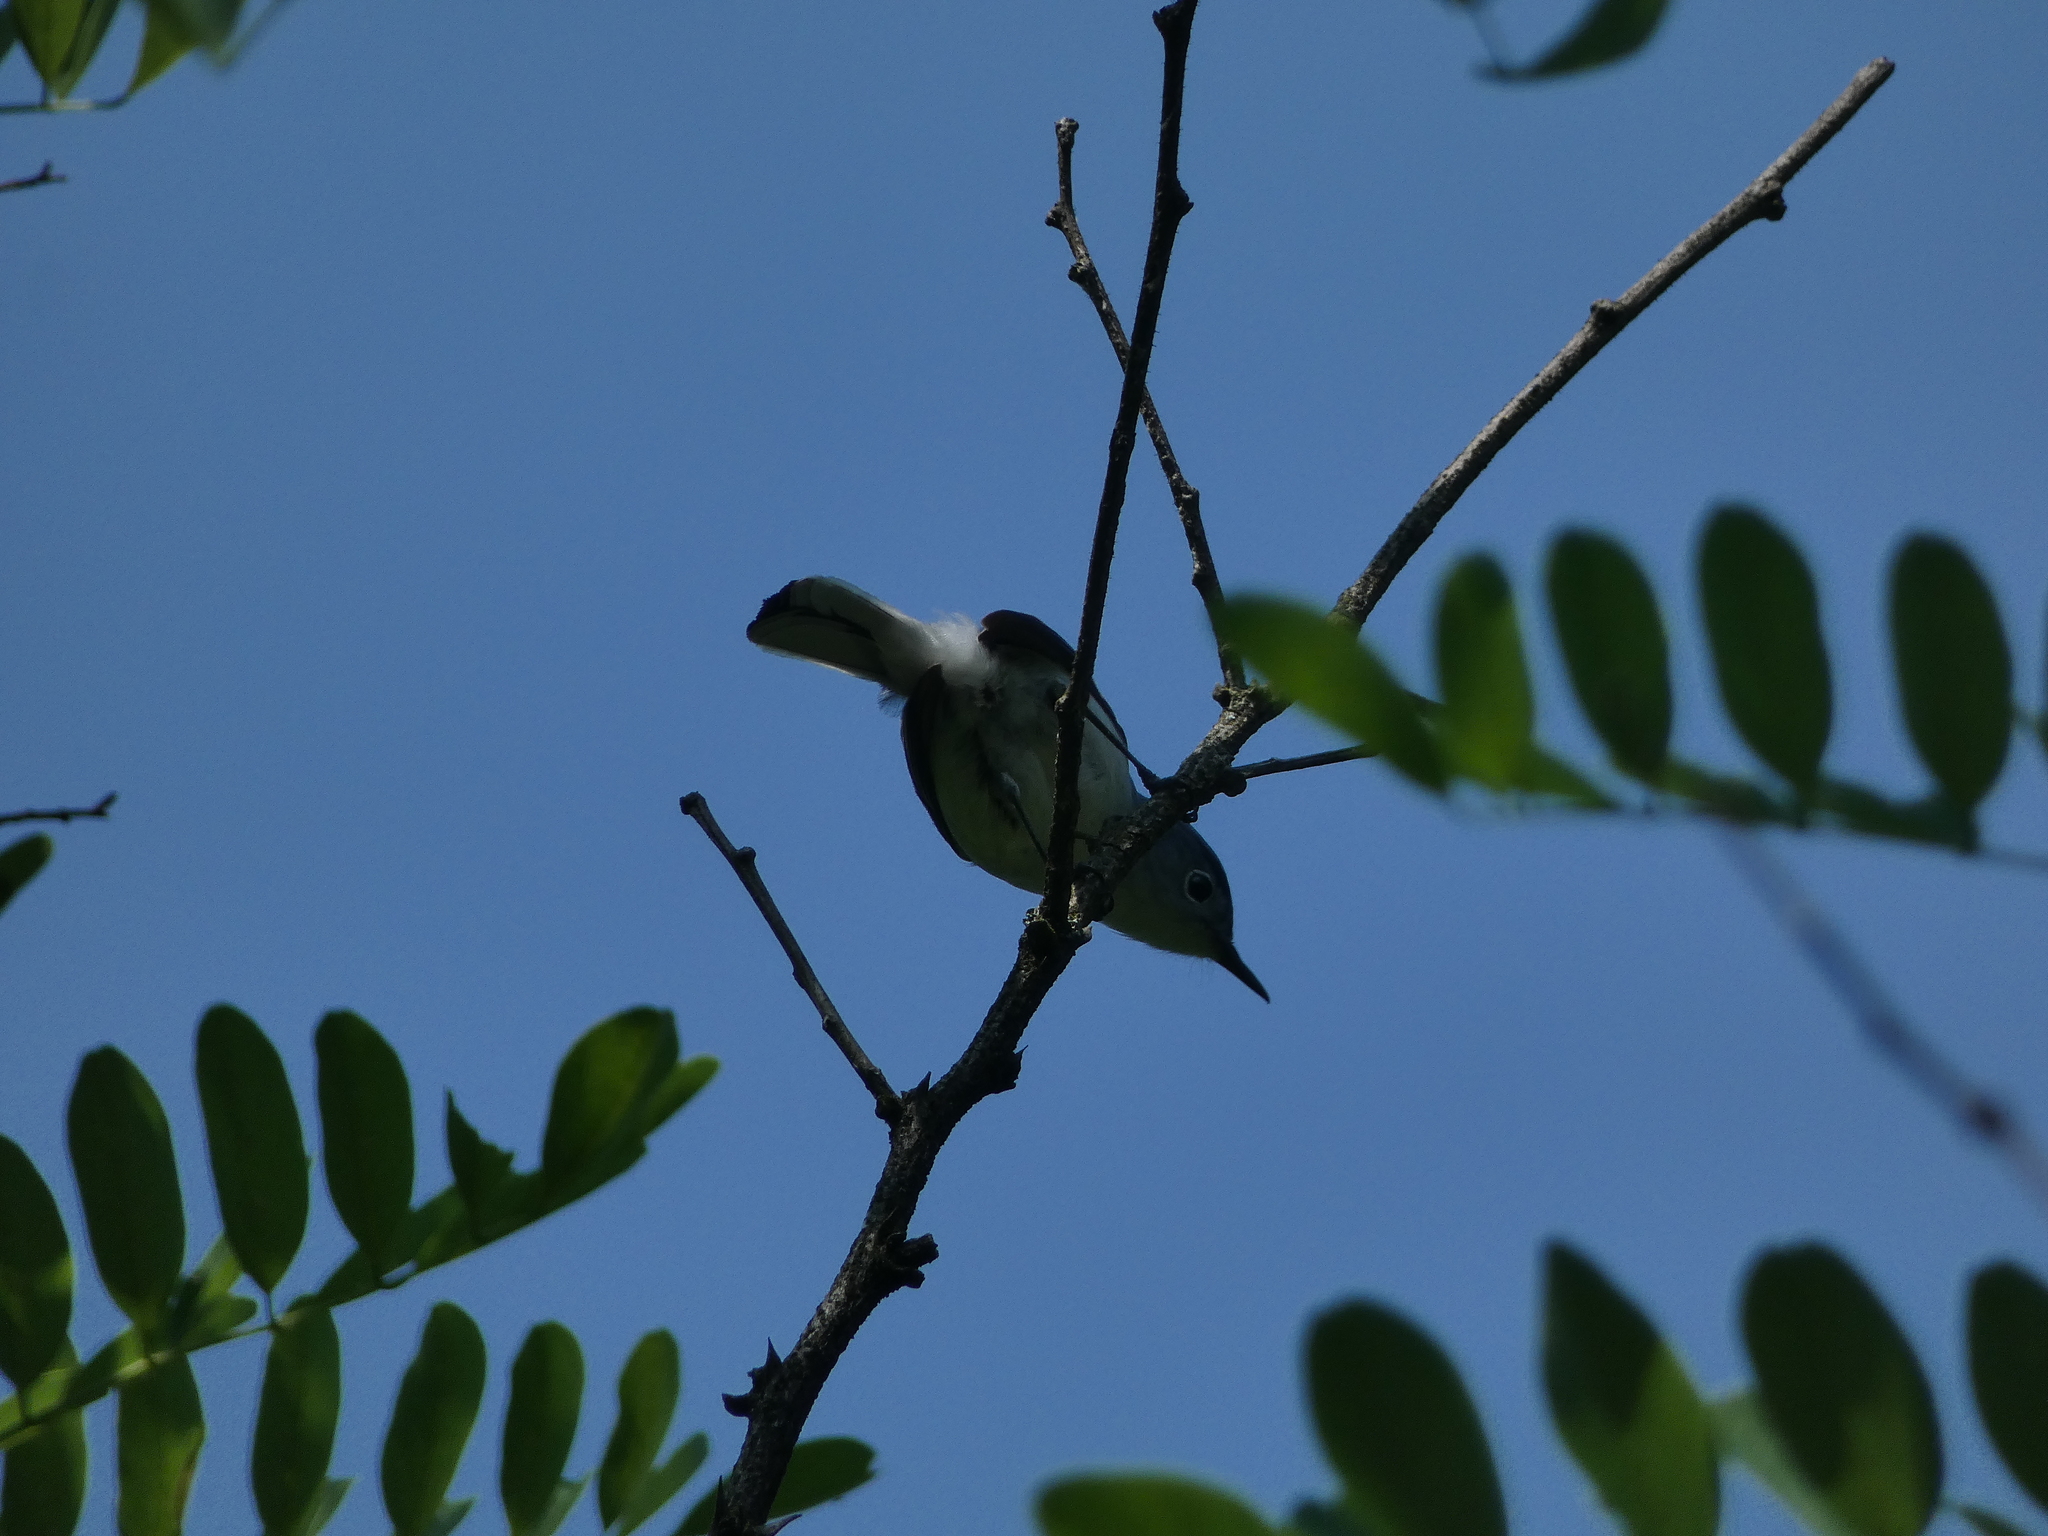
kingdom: Animalia
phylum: Chordata
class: Aves
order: Passeriformes
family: Polioptilidae
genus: Polioptila
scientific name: Polioptila caerulea
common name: Blue-gray gnatcatcher
